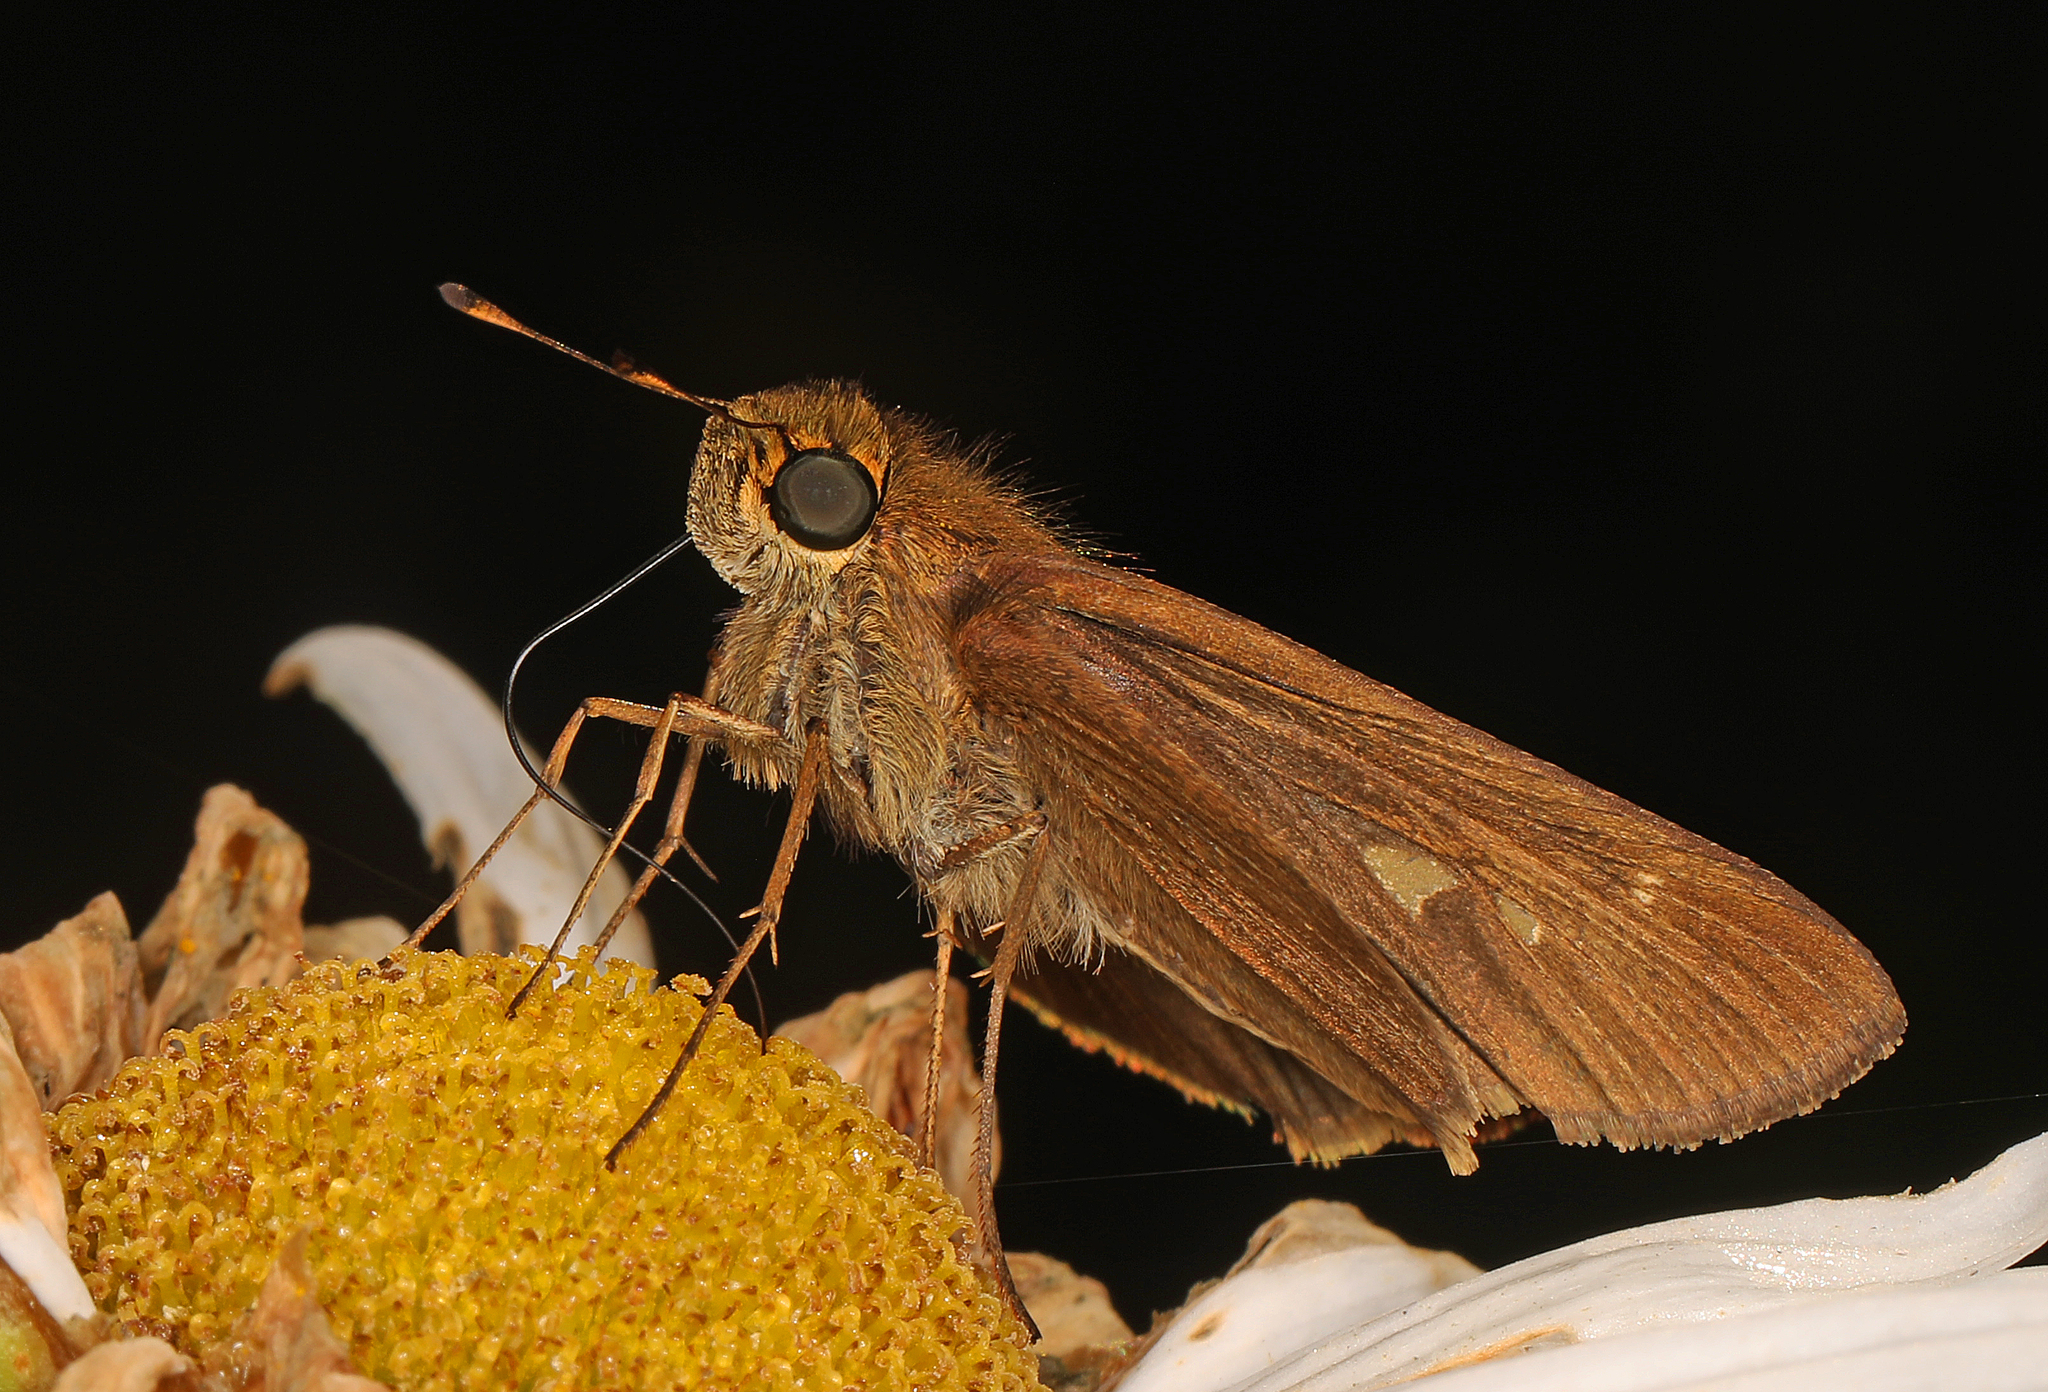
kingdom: Animalia
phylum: Arthropoda
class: Insecta
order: Lepidoptera
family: Hesperiidae
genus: Panoquina
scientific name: Panoquina ocola
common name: Ocola skipper
